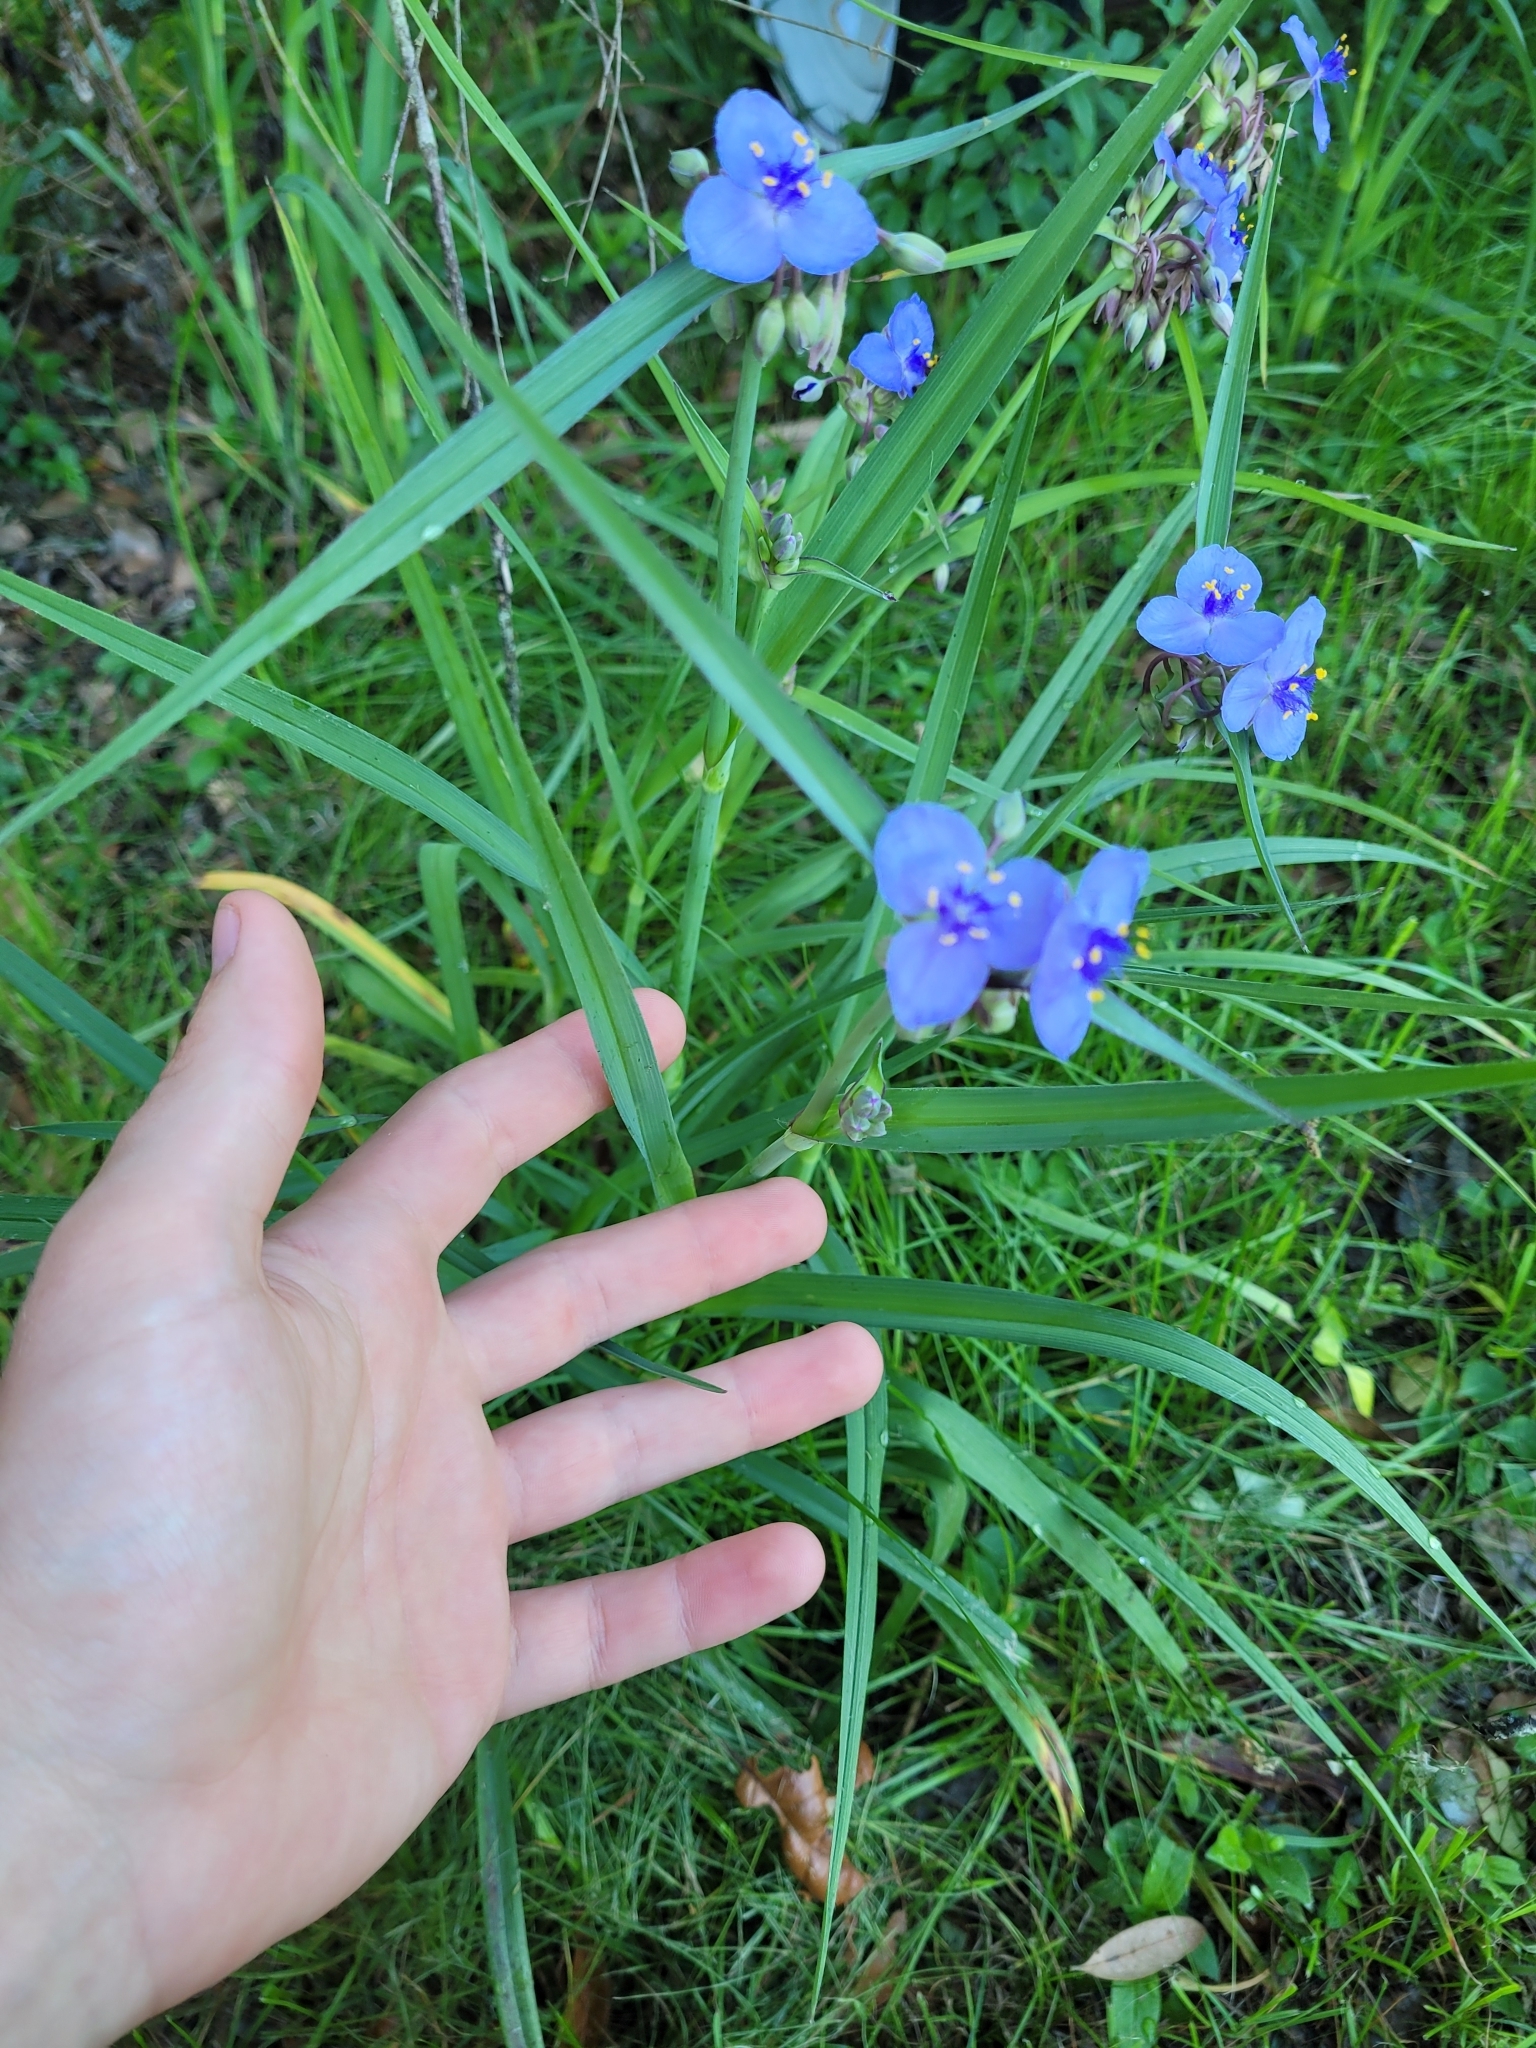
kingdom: Plantae
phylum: Tracheophyta
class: Liliopsida
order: Commelinales
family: Commelinaceae
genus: Tradescantia
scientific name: Tradescantia ohiensis
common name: Ohio spiderwort
